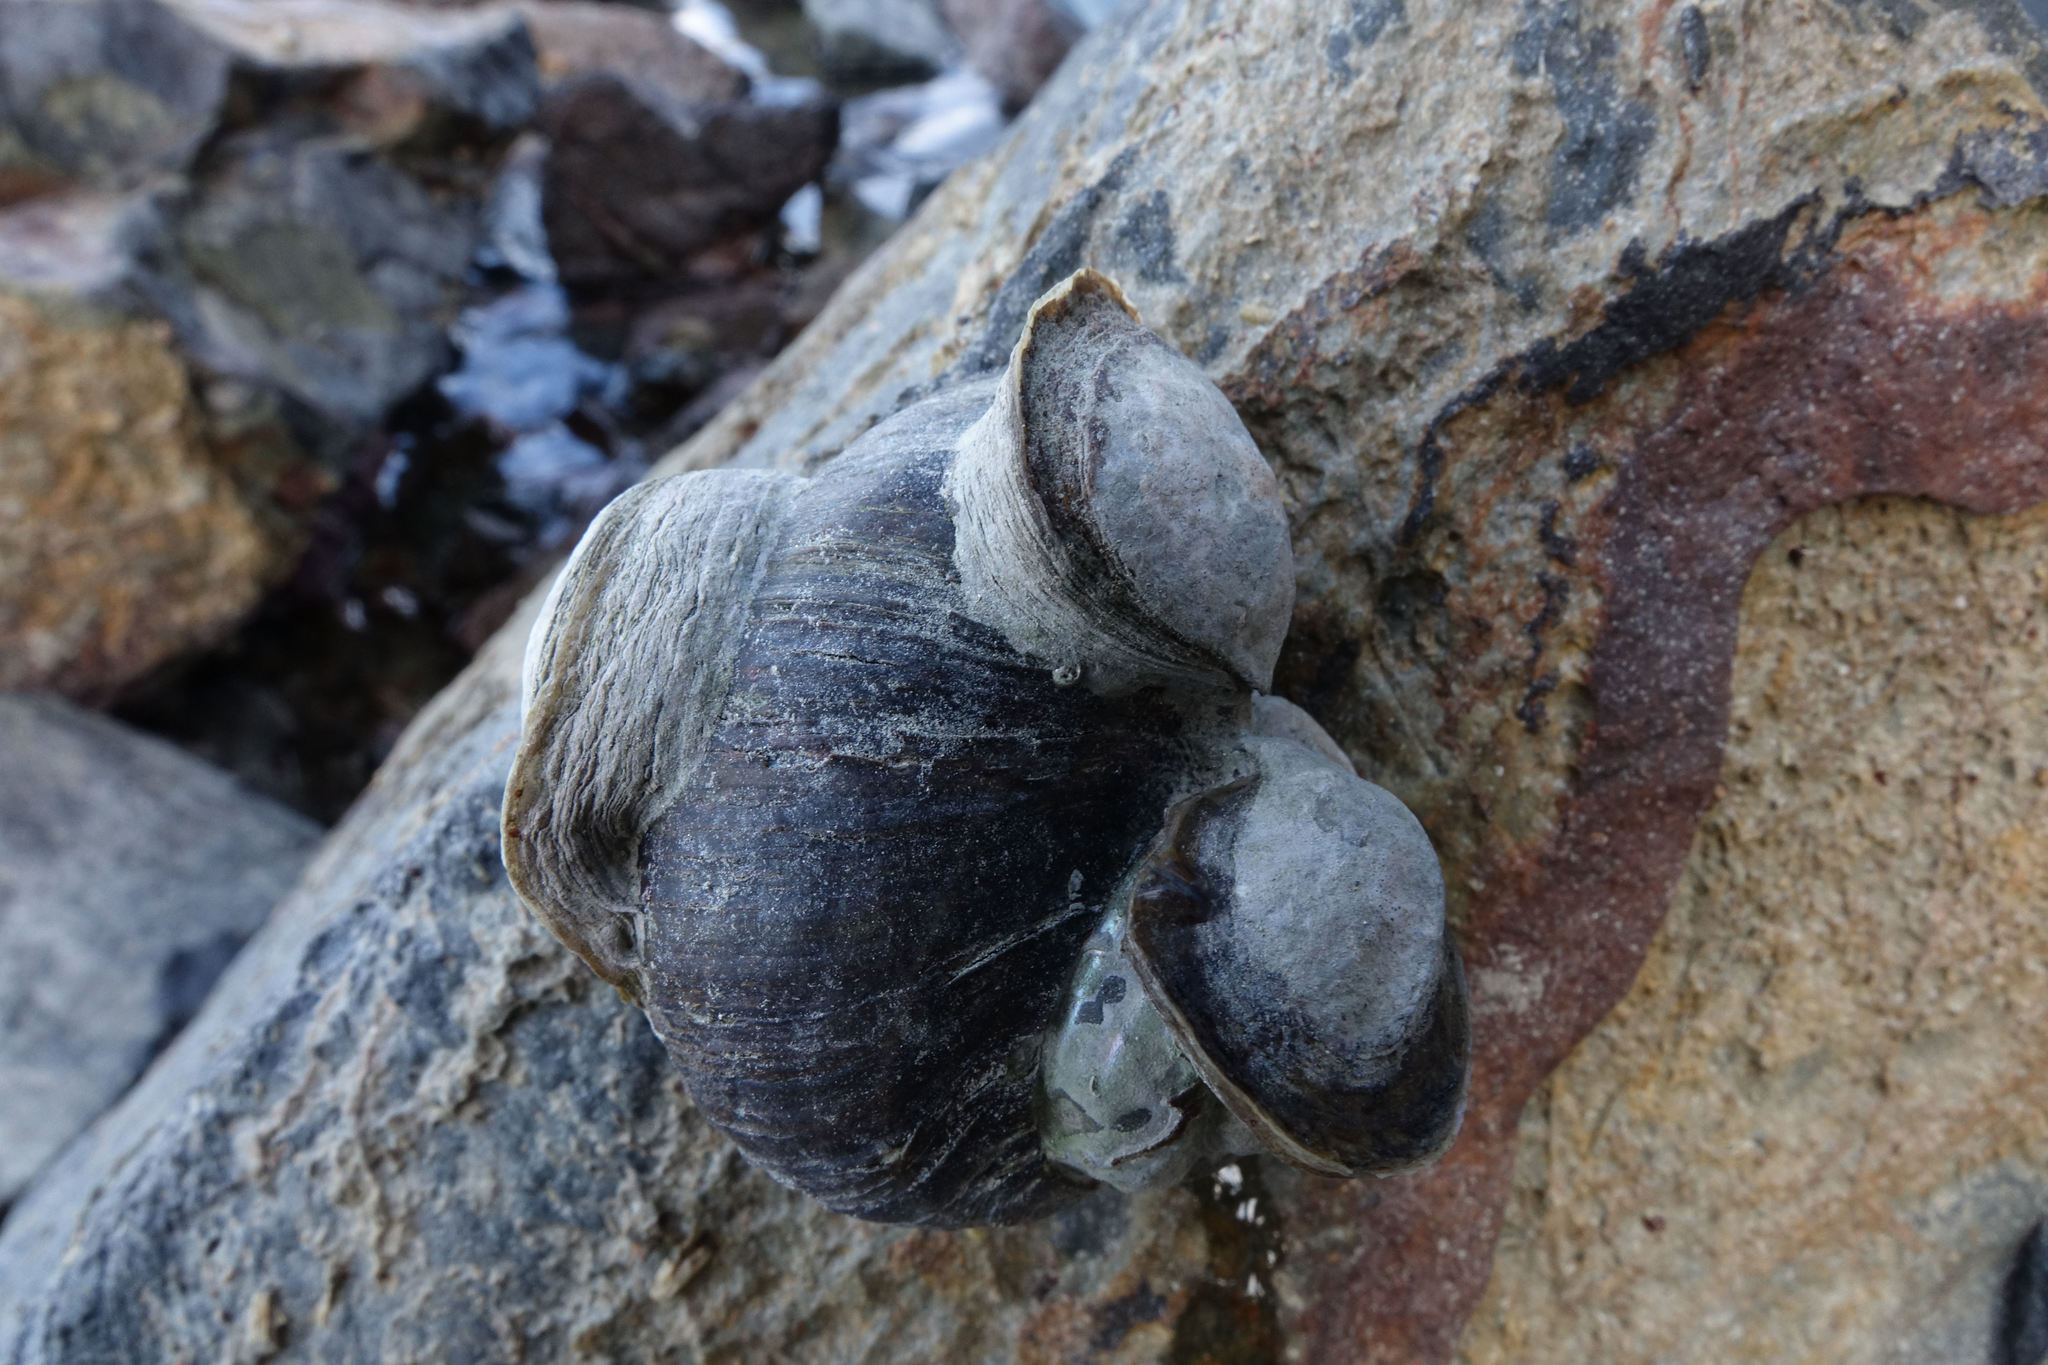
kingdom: Animalia
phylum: Mollusca
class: Bivalvia
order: Ostreida
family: Ostreidae
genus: Ostrea
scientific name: Ostrea chilensis
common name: Chilean oyster
